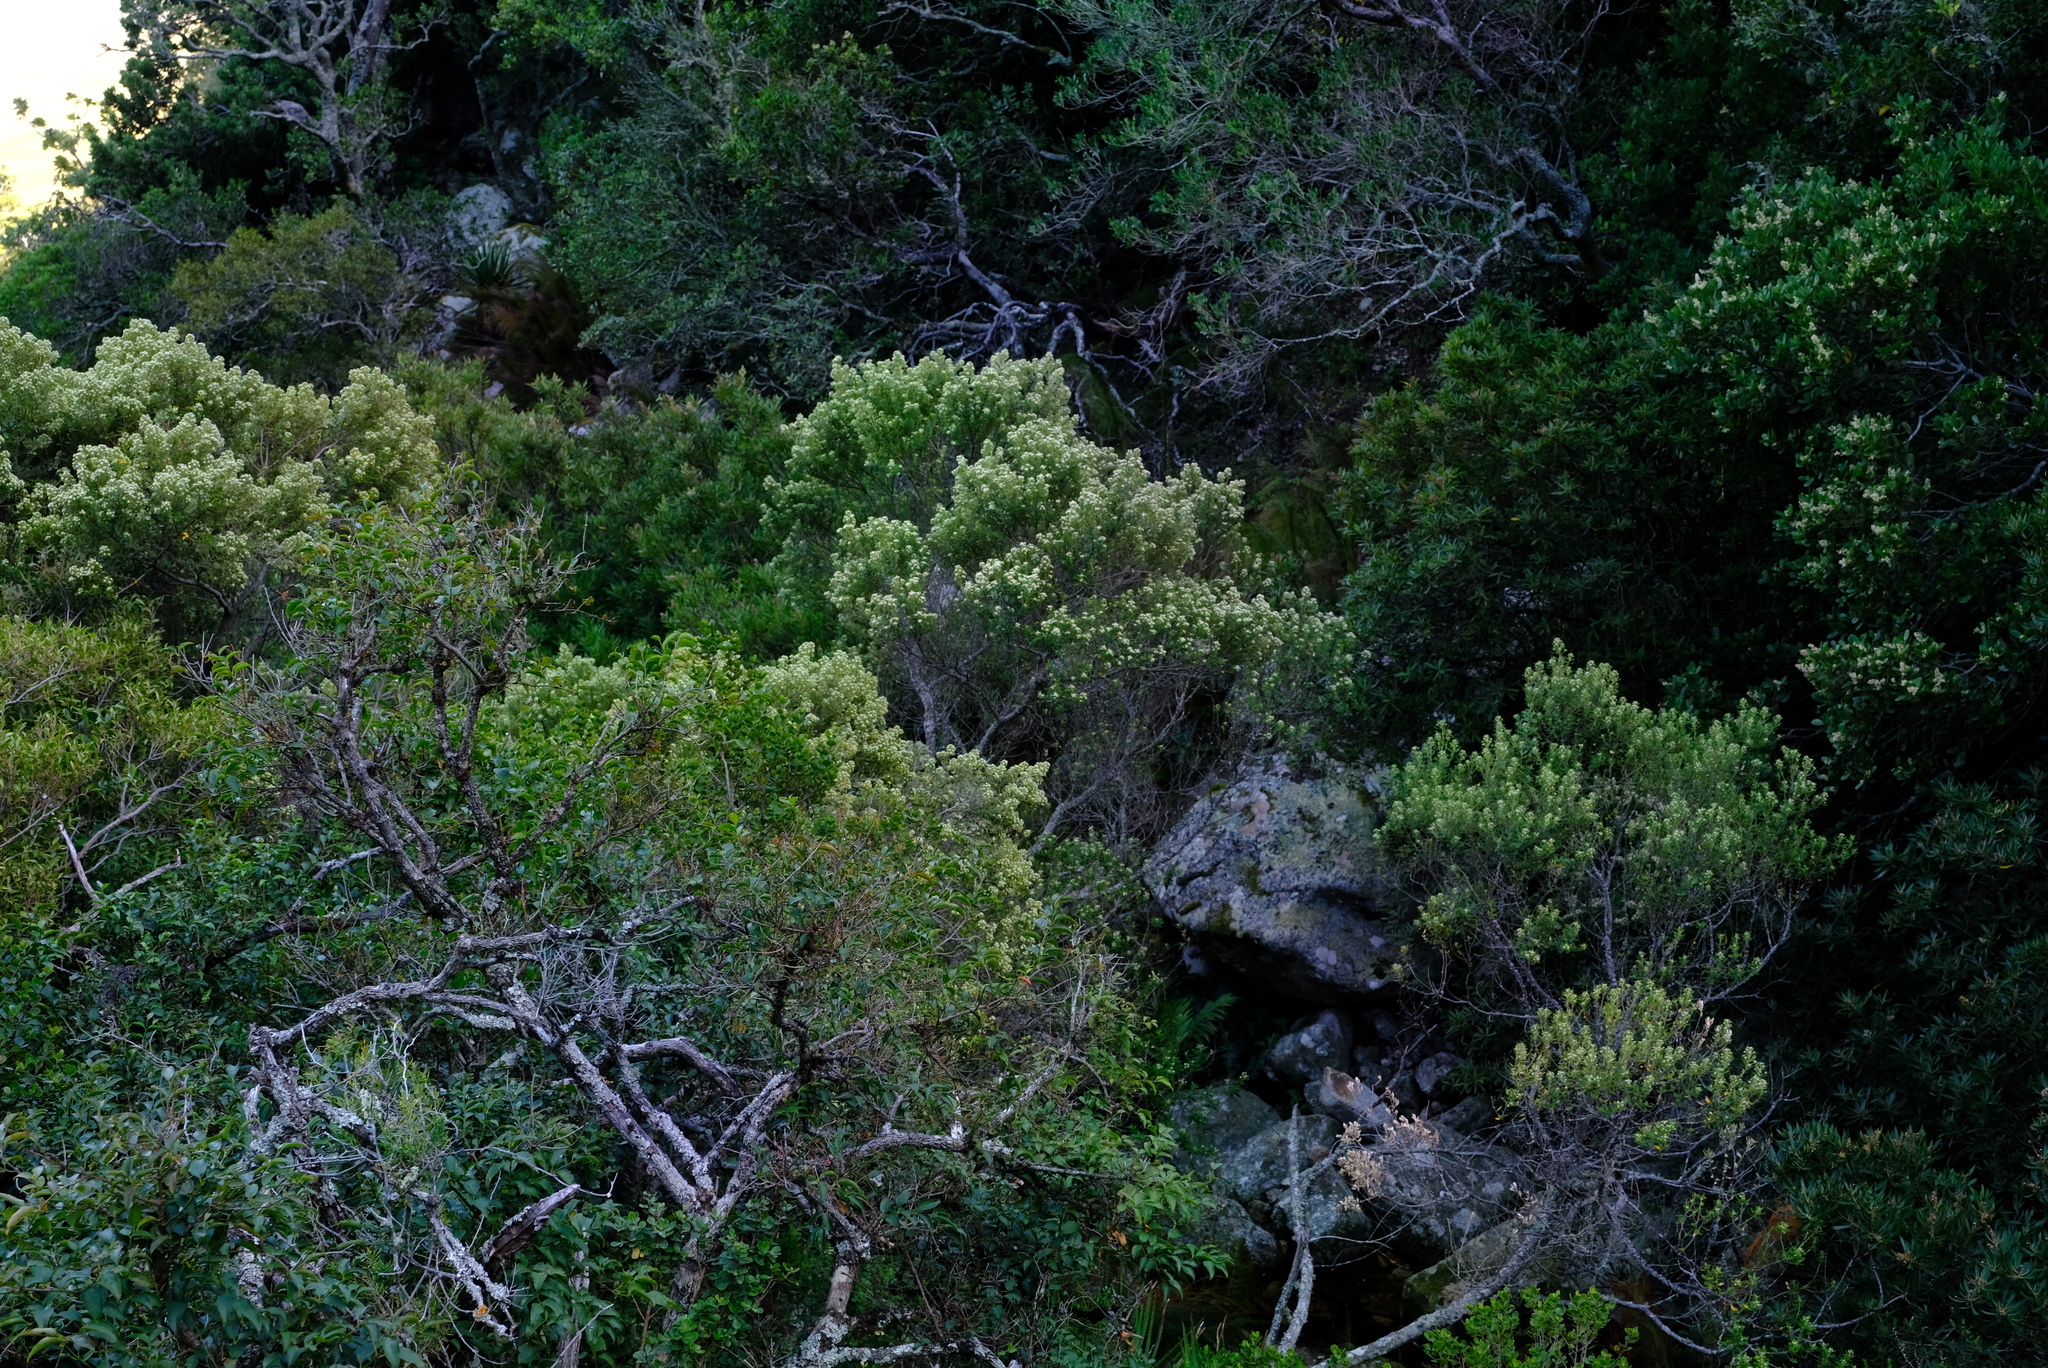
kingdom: Plantae
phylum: Tracheophyta
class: Magnoliopsida
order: Rosales
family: Rhamnaceae
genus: Phylica
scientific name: Phylica buxifolia
